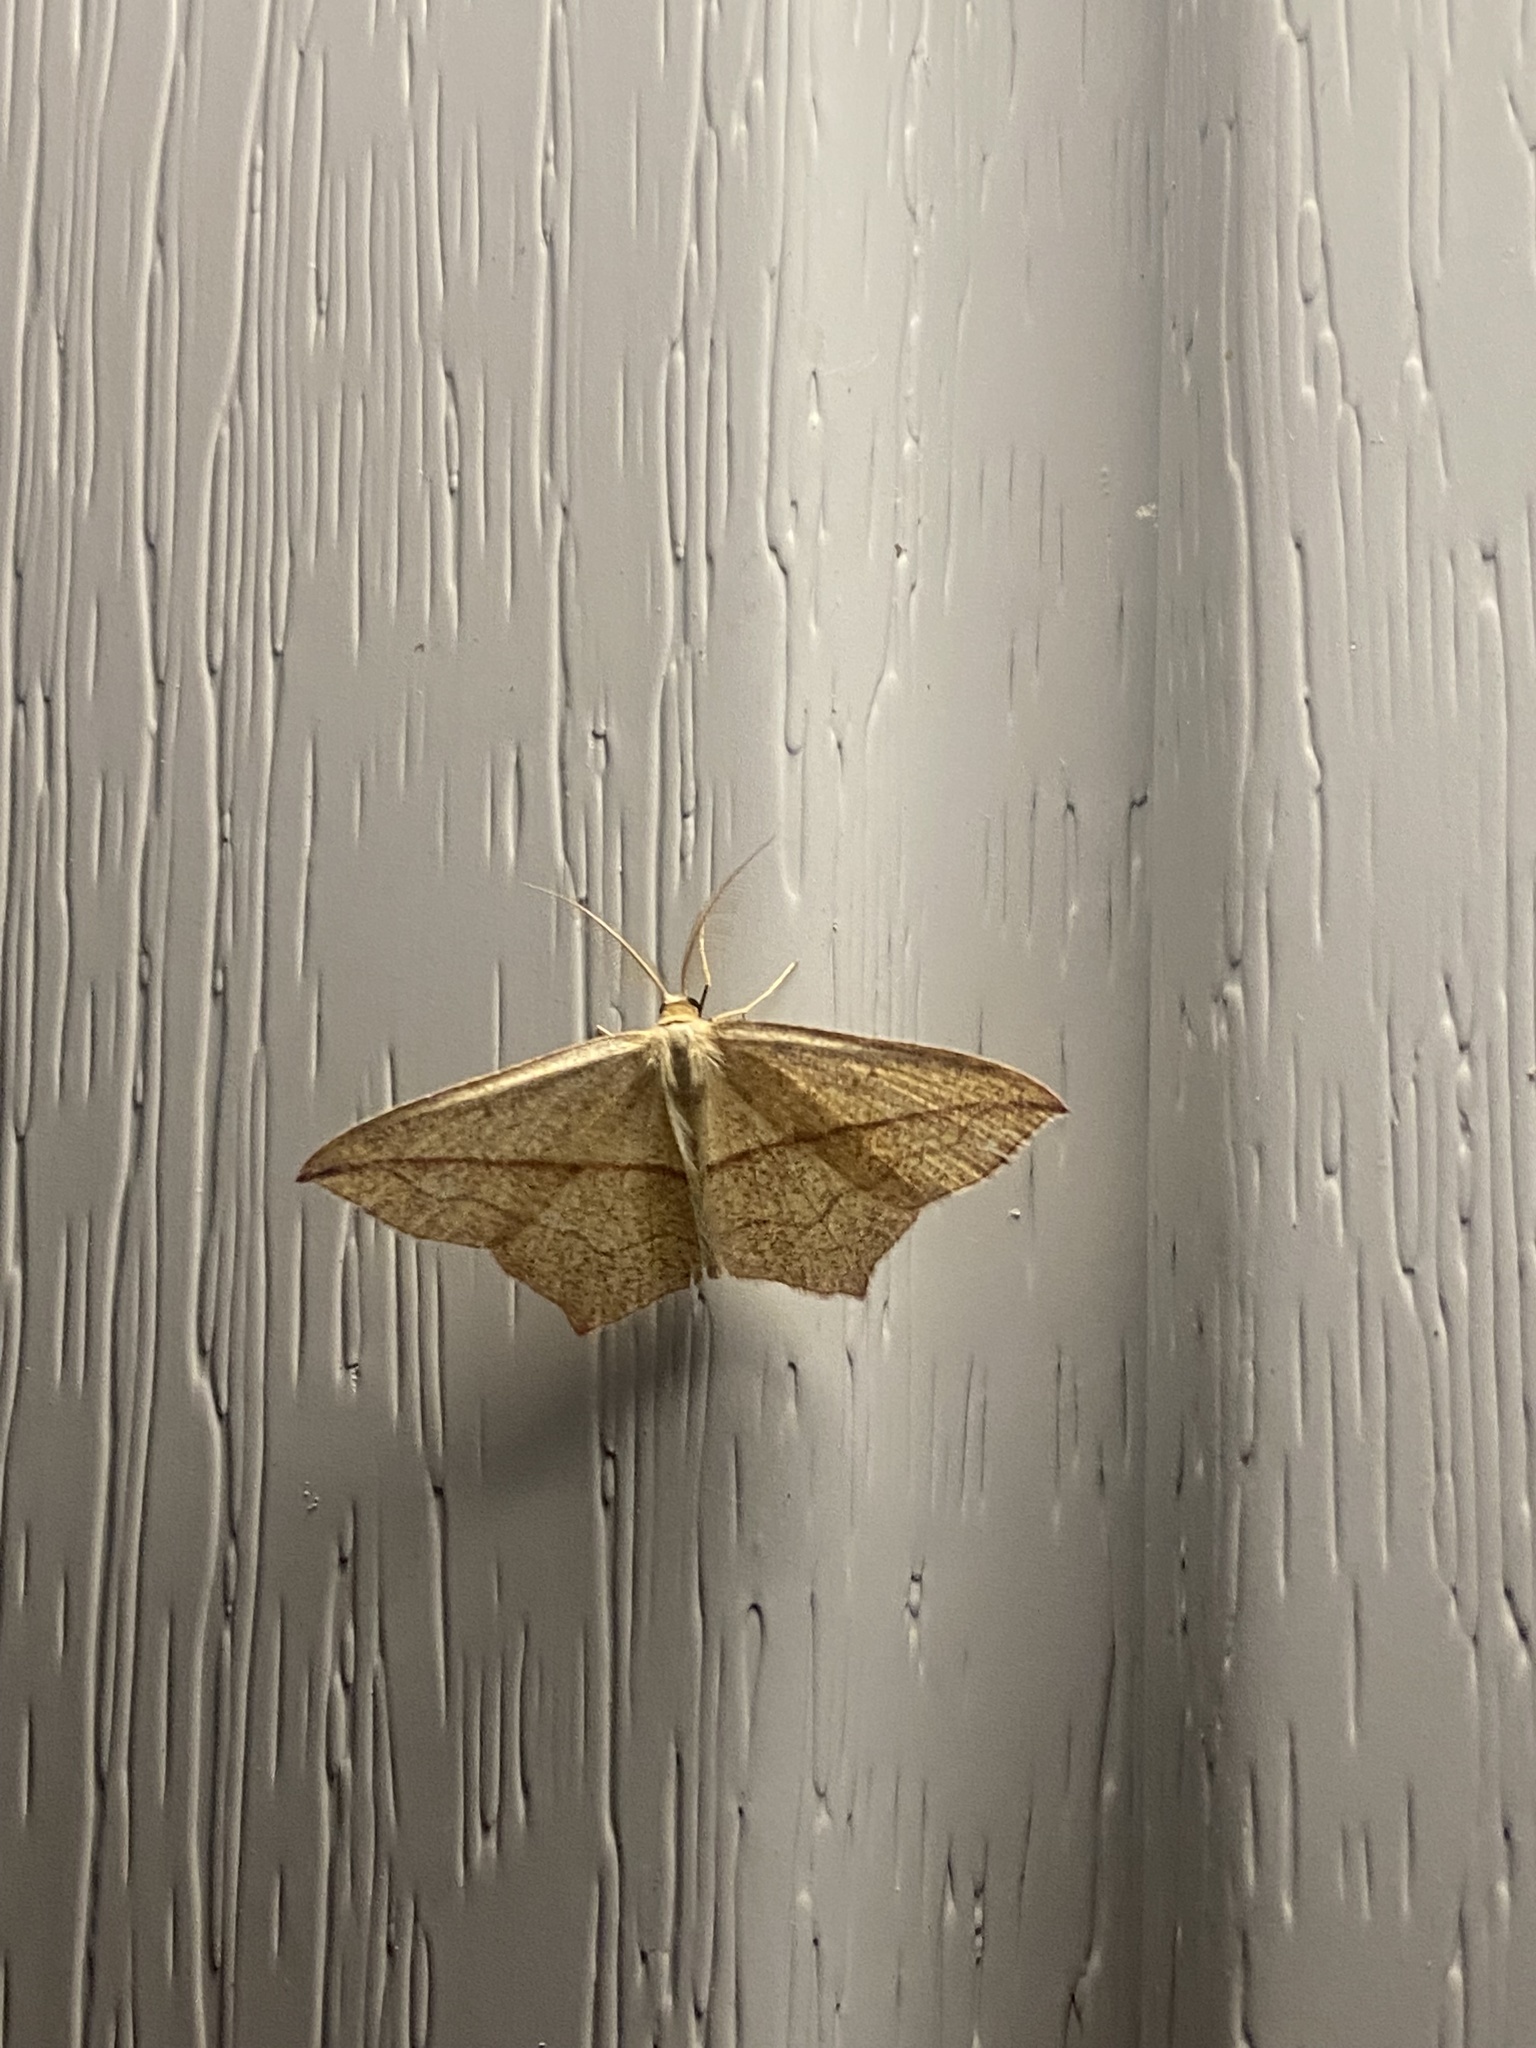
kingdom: Animalia
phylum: Arthropoda
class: Insecta
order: Lepidoptera
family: Geometridae
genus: Timandra
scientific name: Timandra comae
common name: Blood-vein
